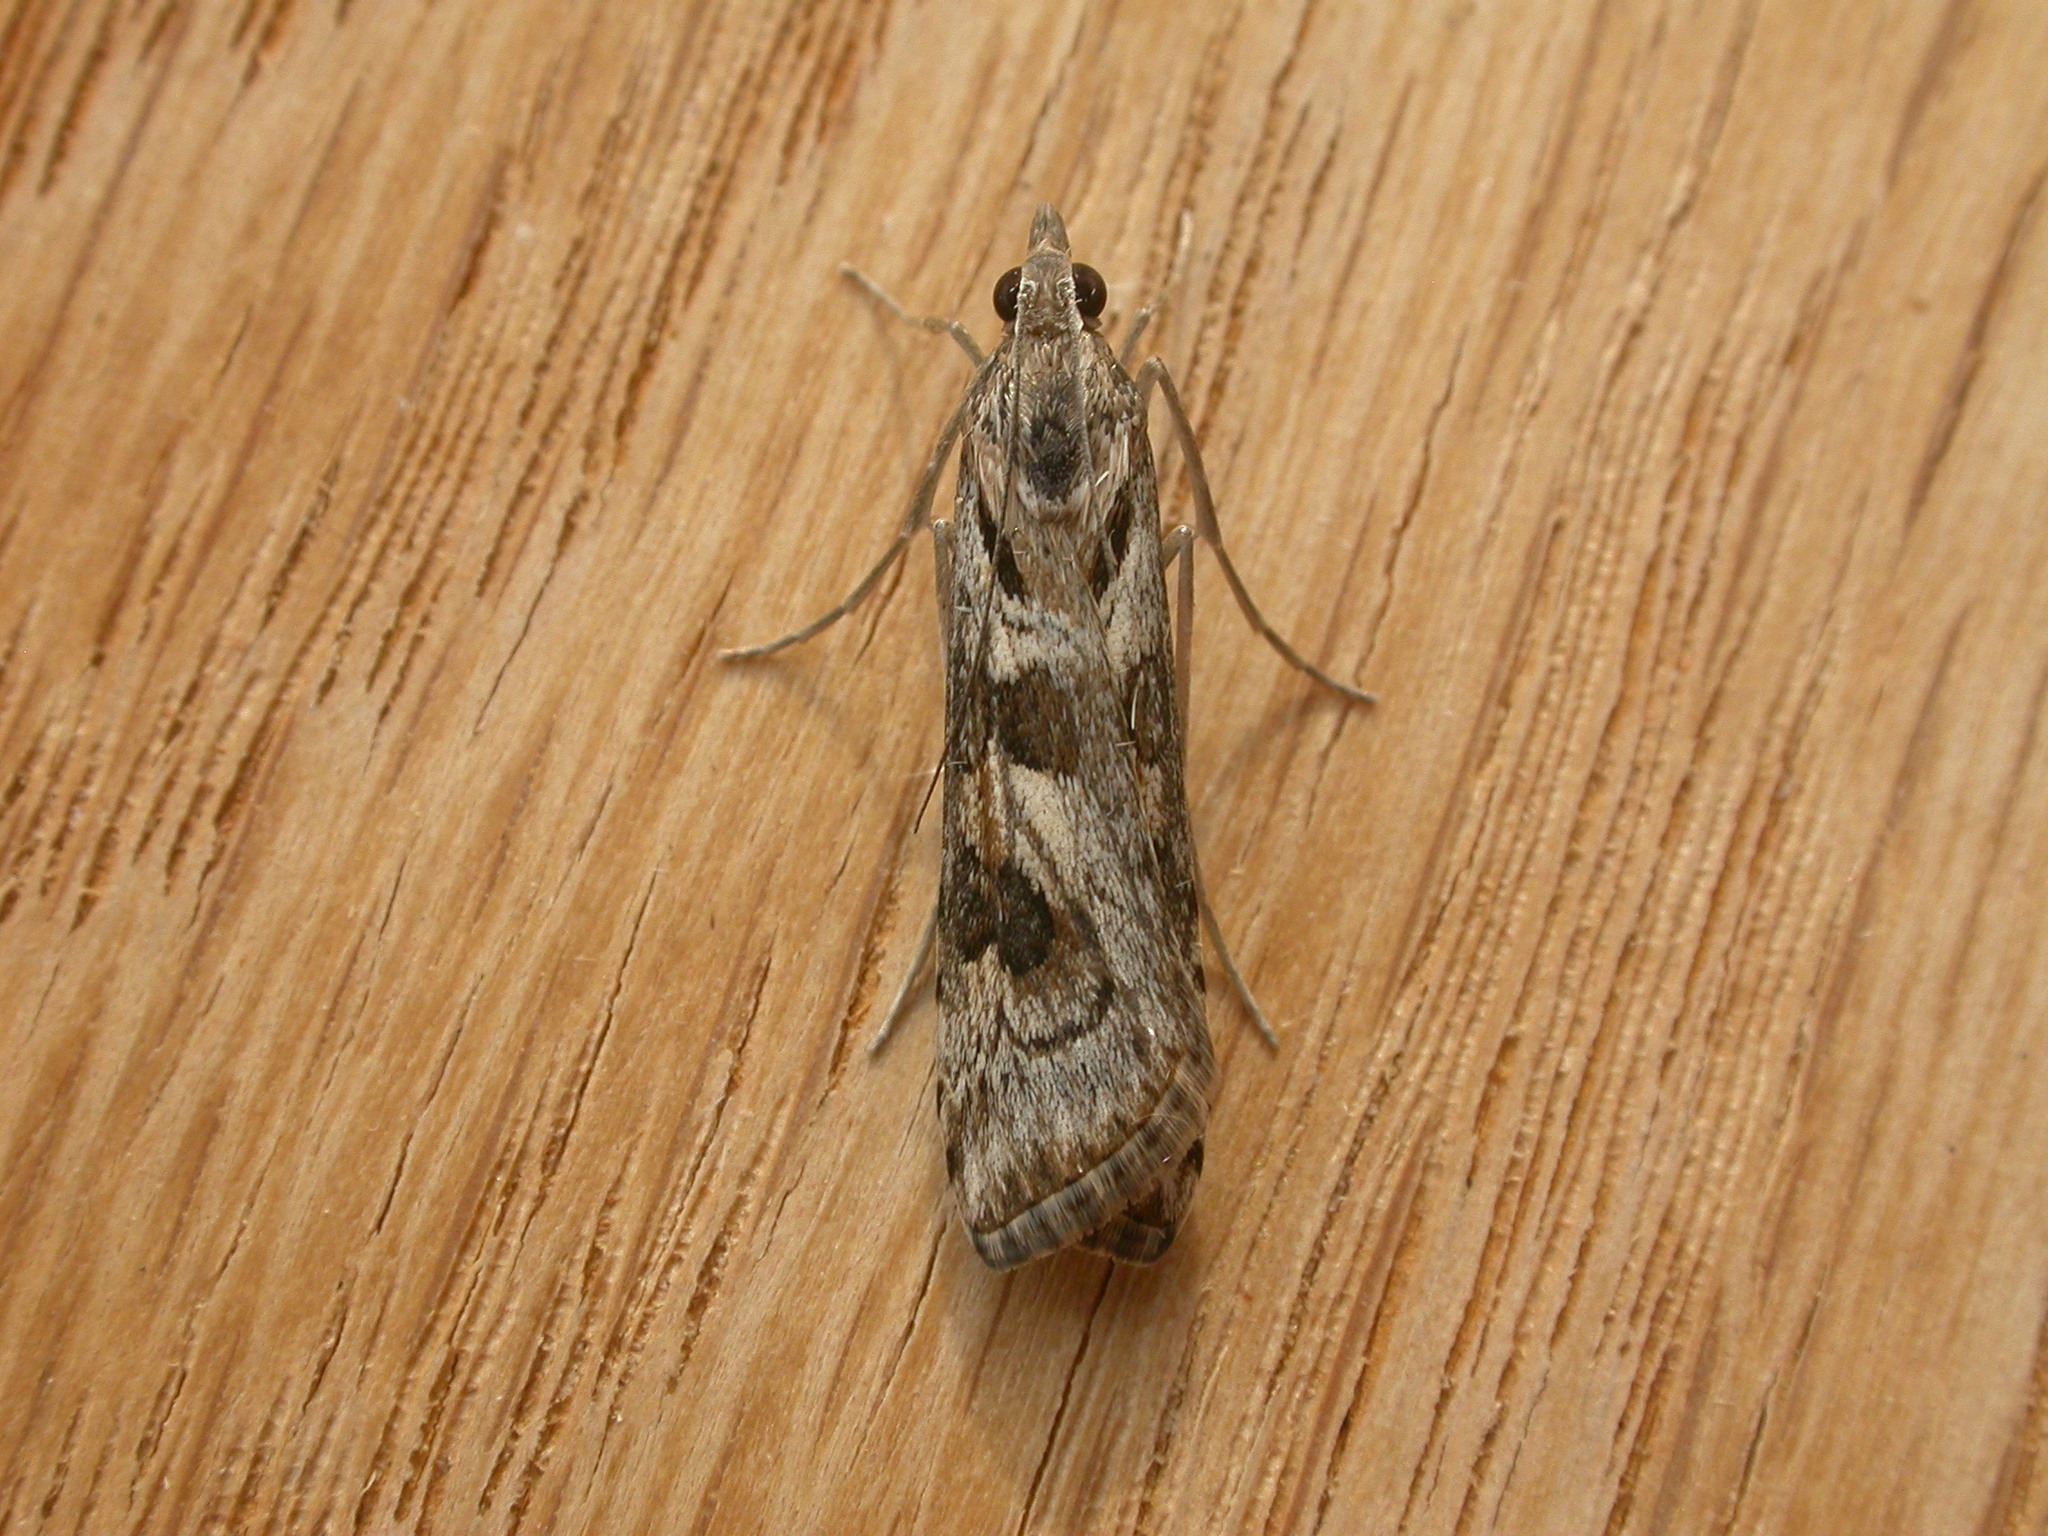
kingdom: Animalia
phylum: Arthropoda
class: Insecta
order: Lepidoptera
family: Crambidae
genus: Nomophila
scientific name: Nomophila corticalis
